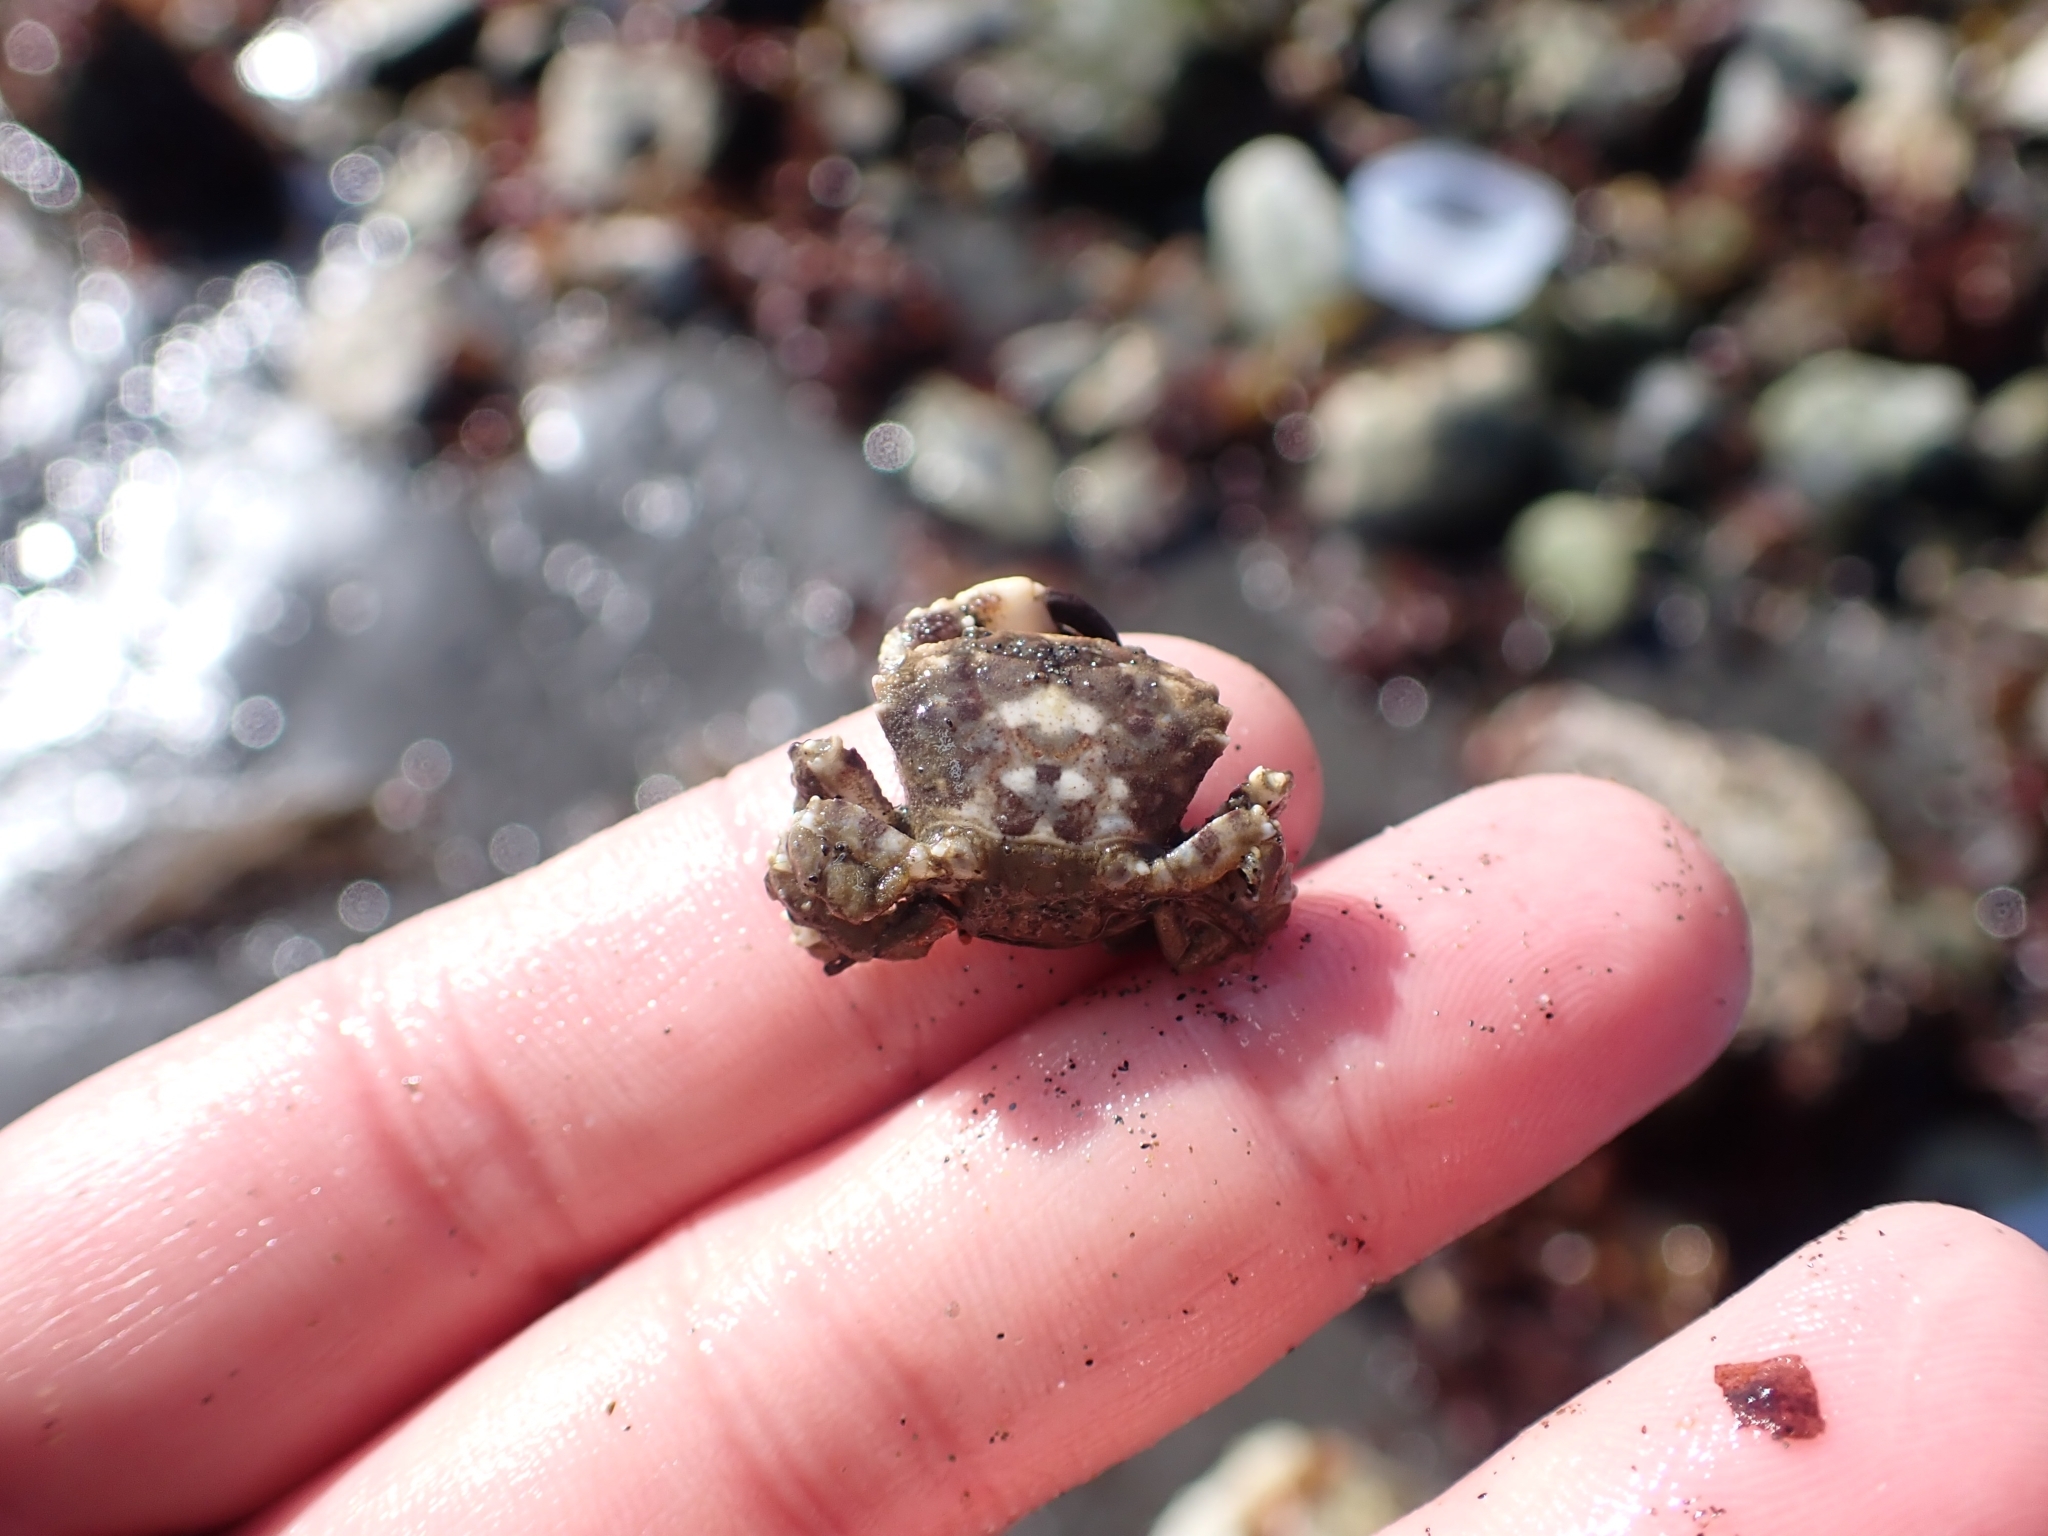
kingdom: Animalia
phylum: Arthropoda
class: Malacostraca
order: Decapoda
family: Panopeidae
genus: Lophopanopeus
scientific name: Lophopanopeus bellus
